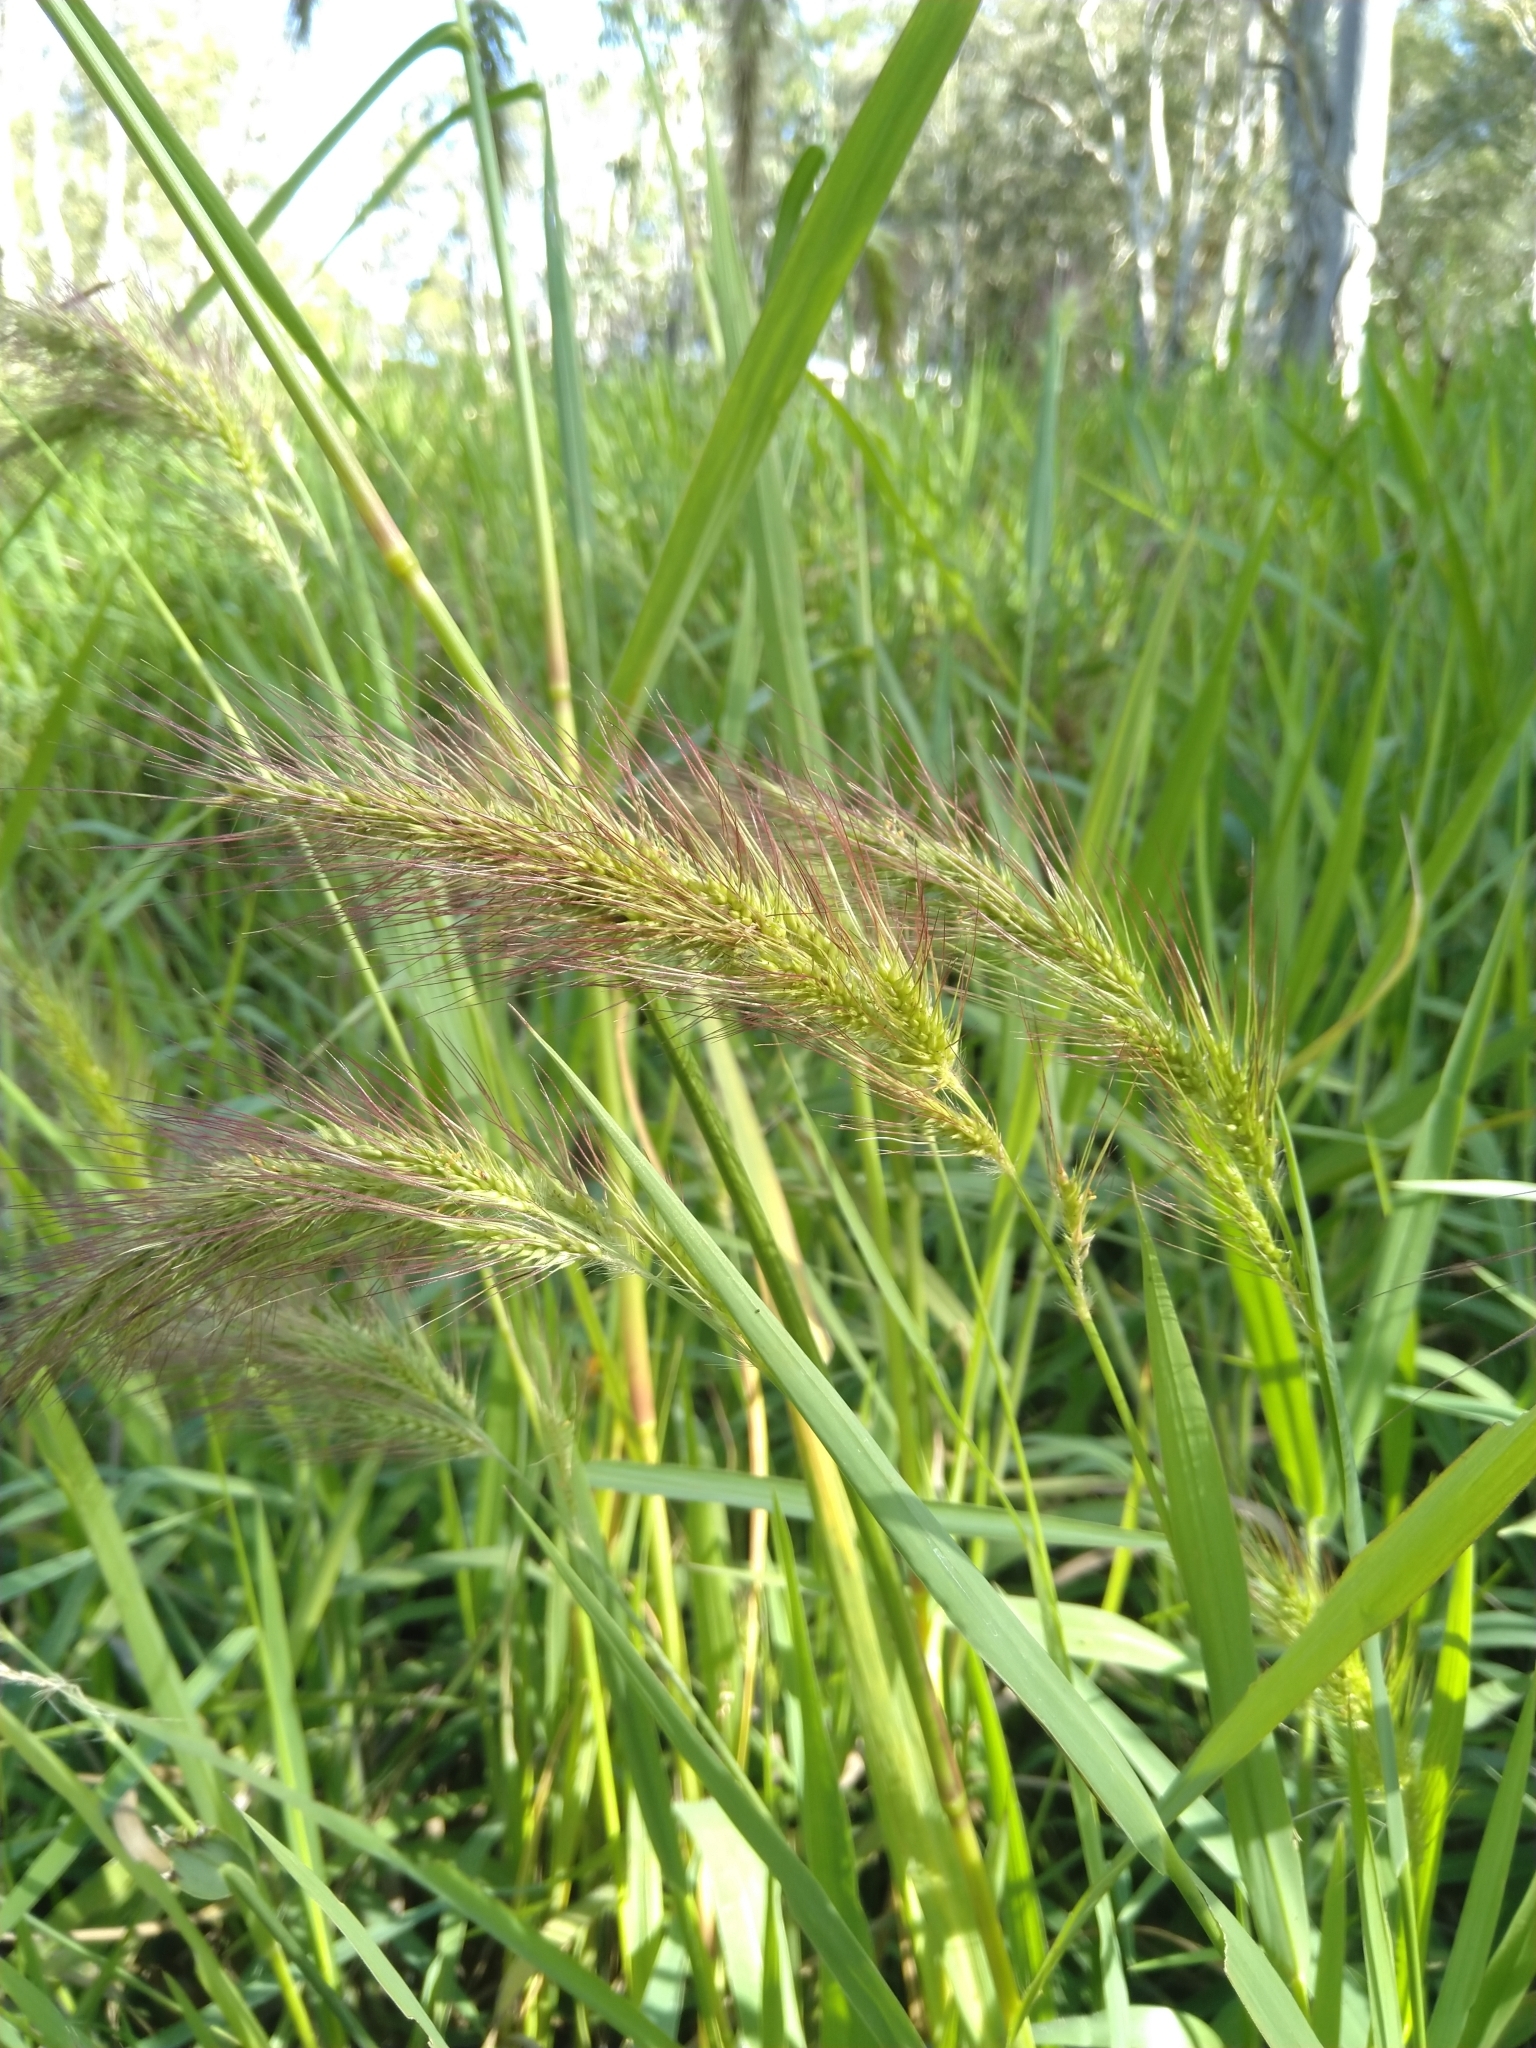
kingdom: Plantae
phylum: Tracheophyta
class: Liliopsida
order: Poales
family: Poaceae
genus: Echinochloa
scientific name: Echinochloa telmatophila
